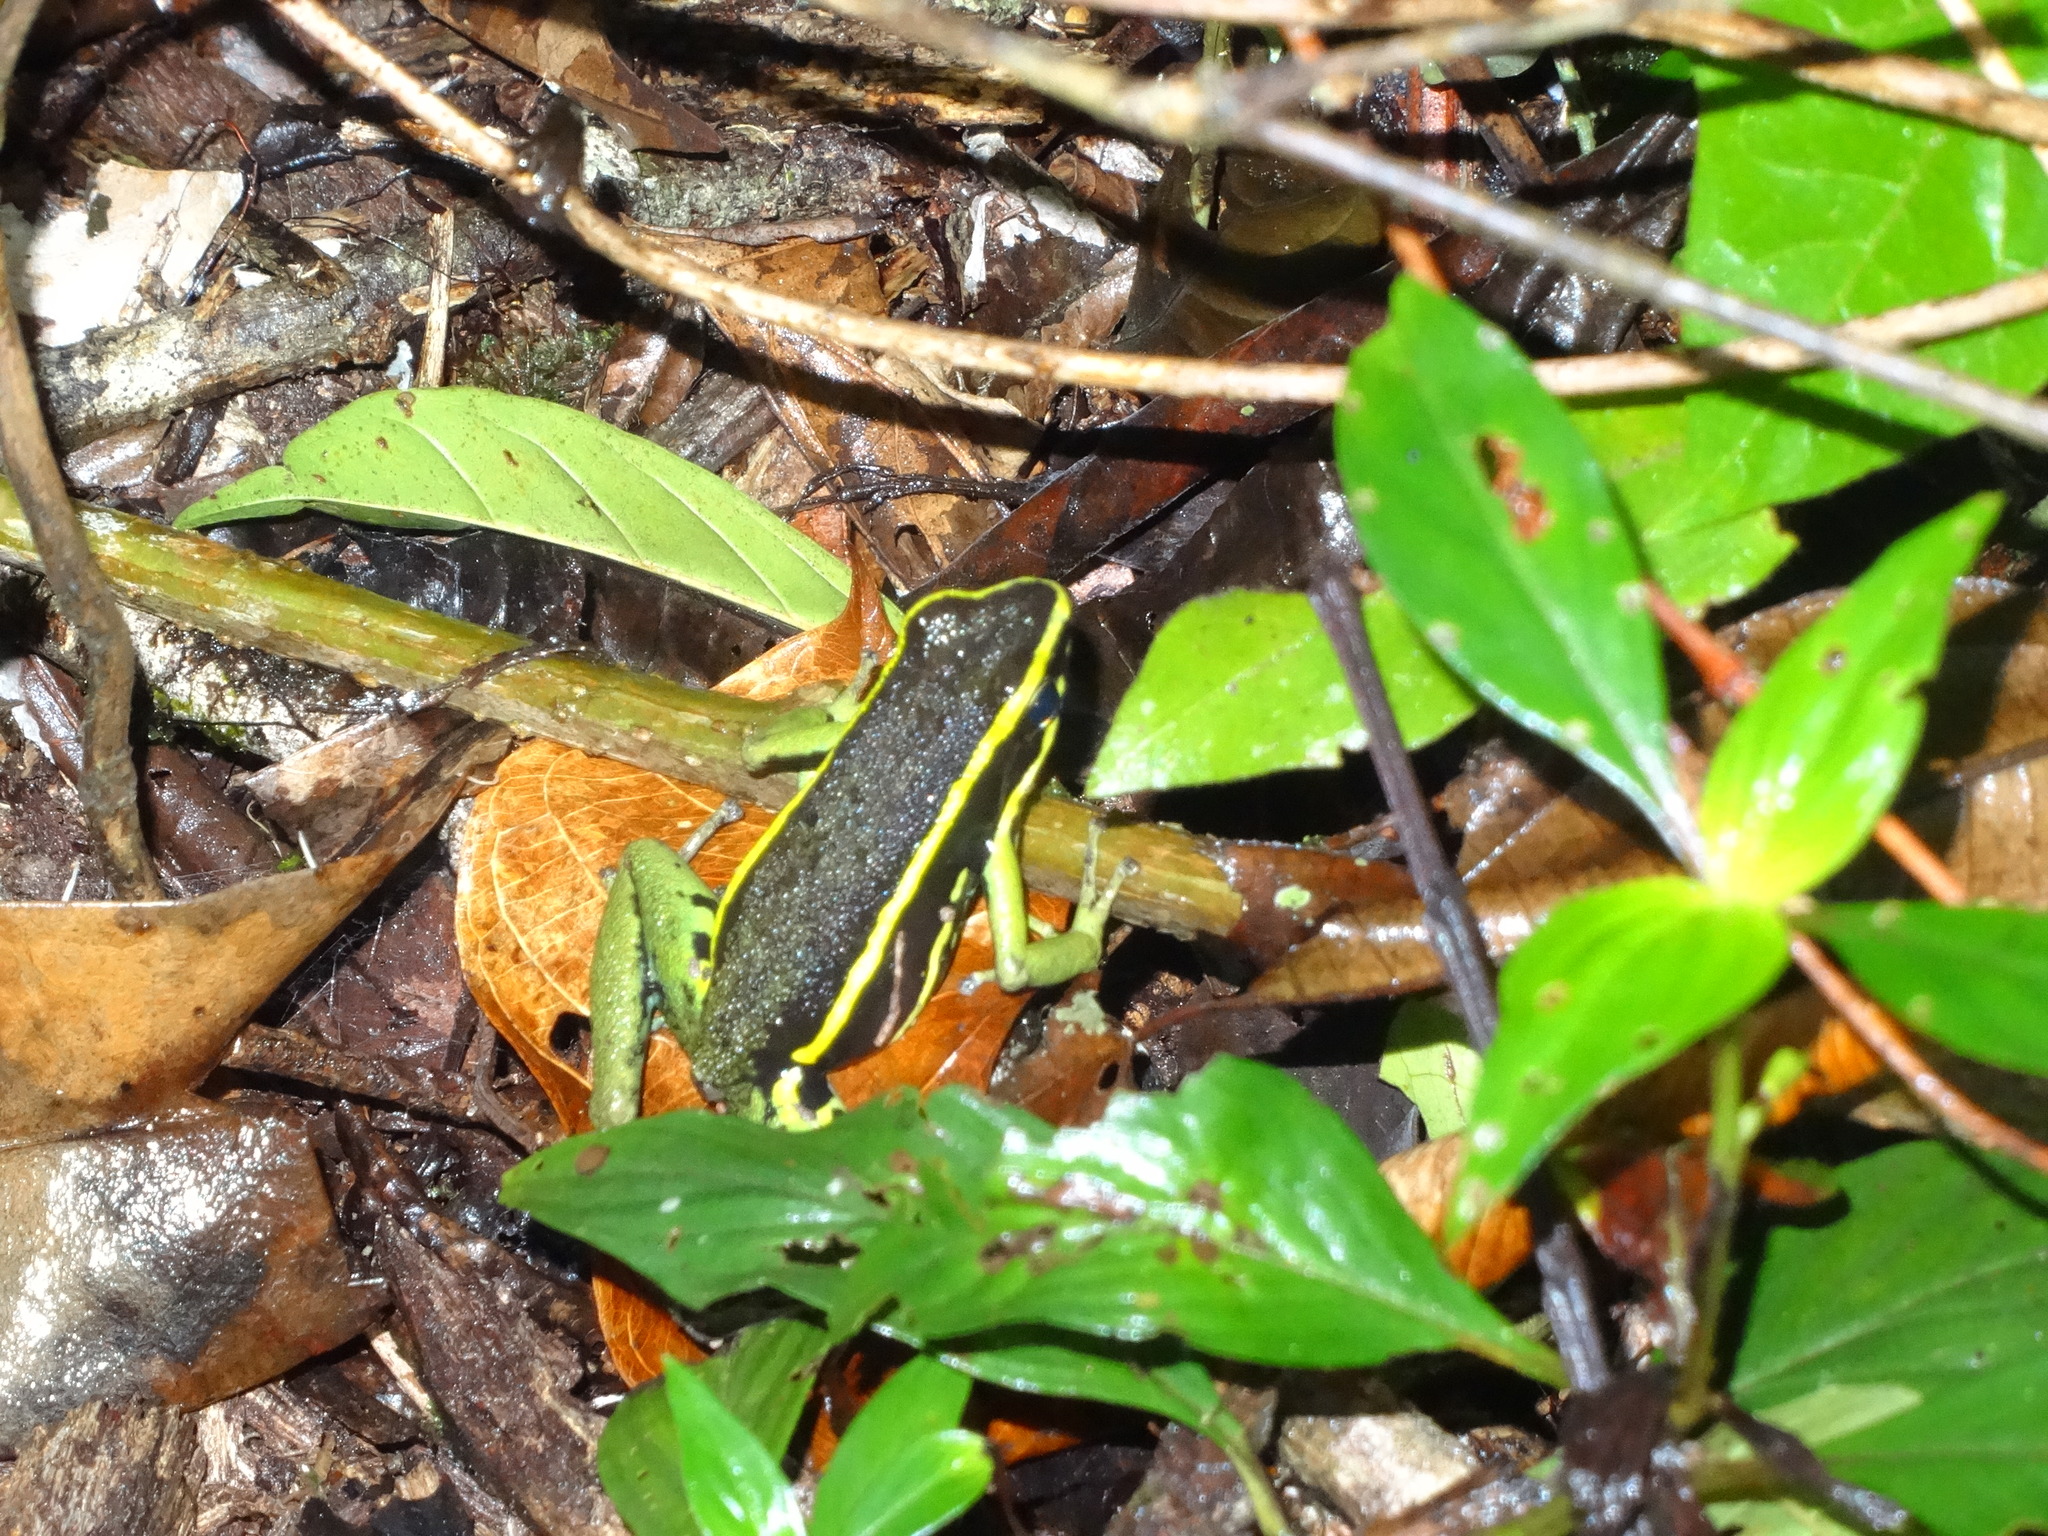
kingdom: Animalia
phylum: Chordata
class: Amphibia
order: Anura
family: Dendrobatidae
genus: Ameerega
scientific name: Ameerega trivittata
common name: Three-striped arrow-poison frog
